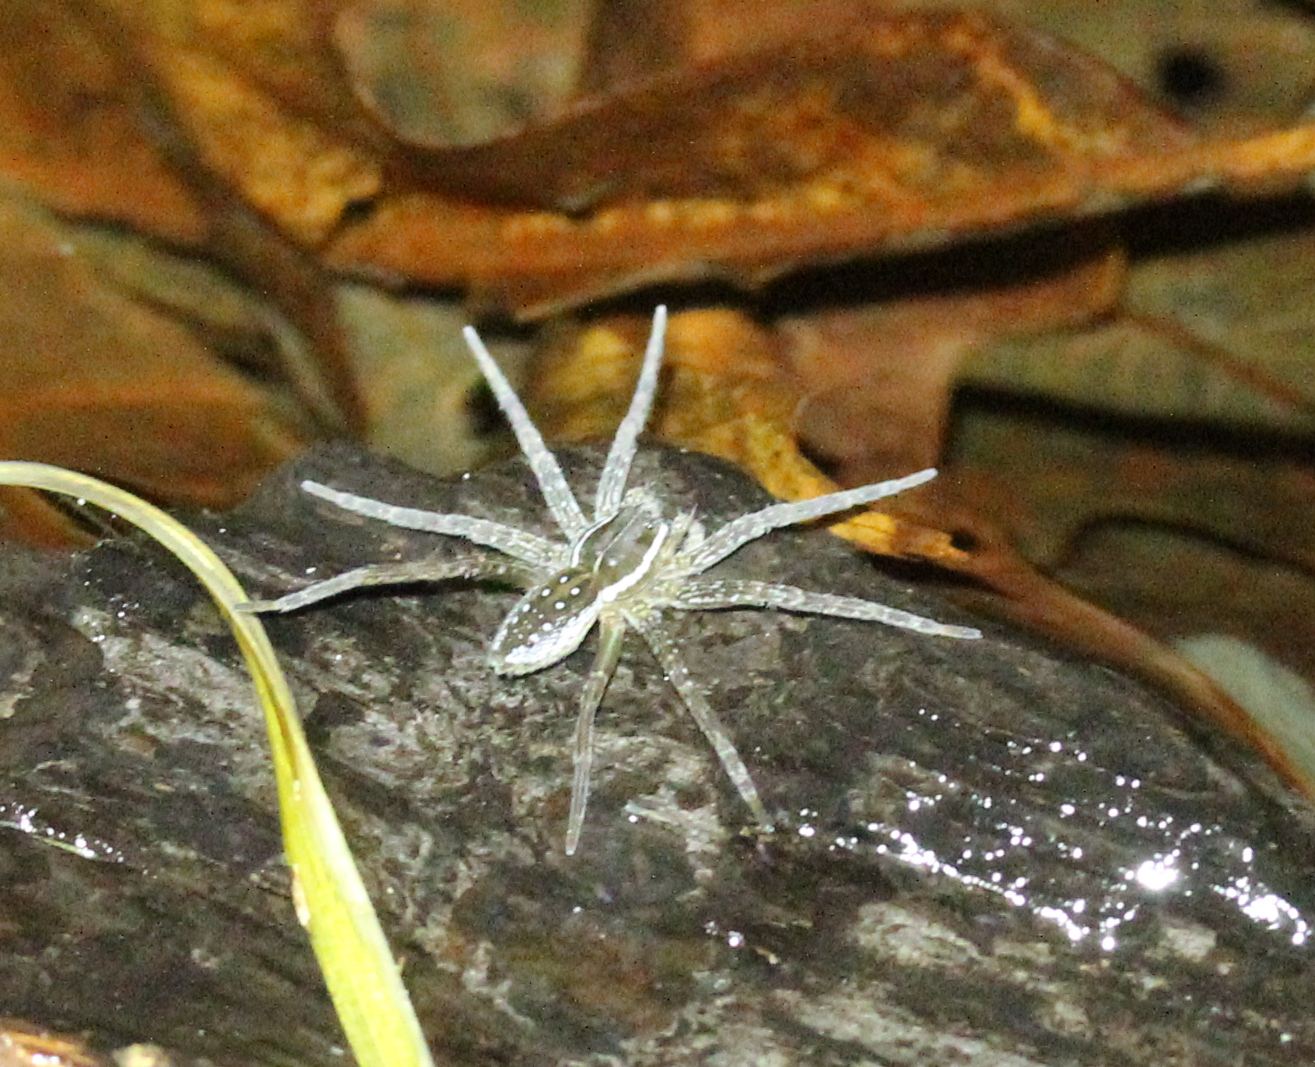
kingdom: Animalia
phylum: Arthropoda
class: Arachnida
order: Araneae
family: Pisauridae
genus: Dolomedes
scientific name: Dolomedes triton
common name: Six-spotted fishing spider
